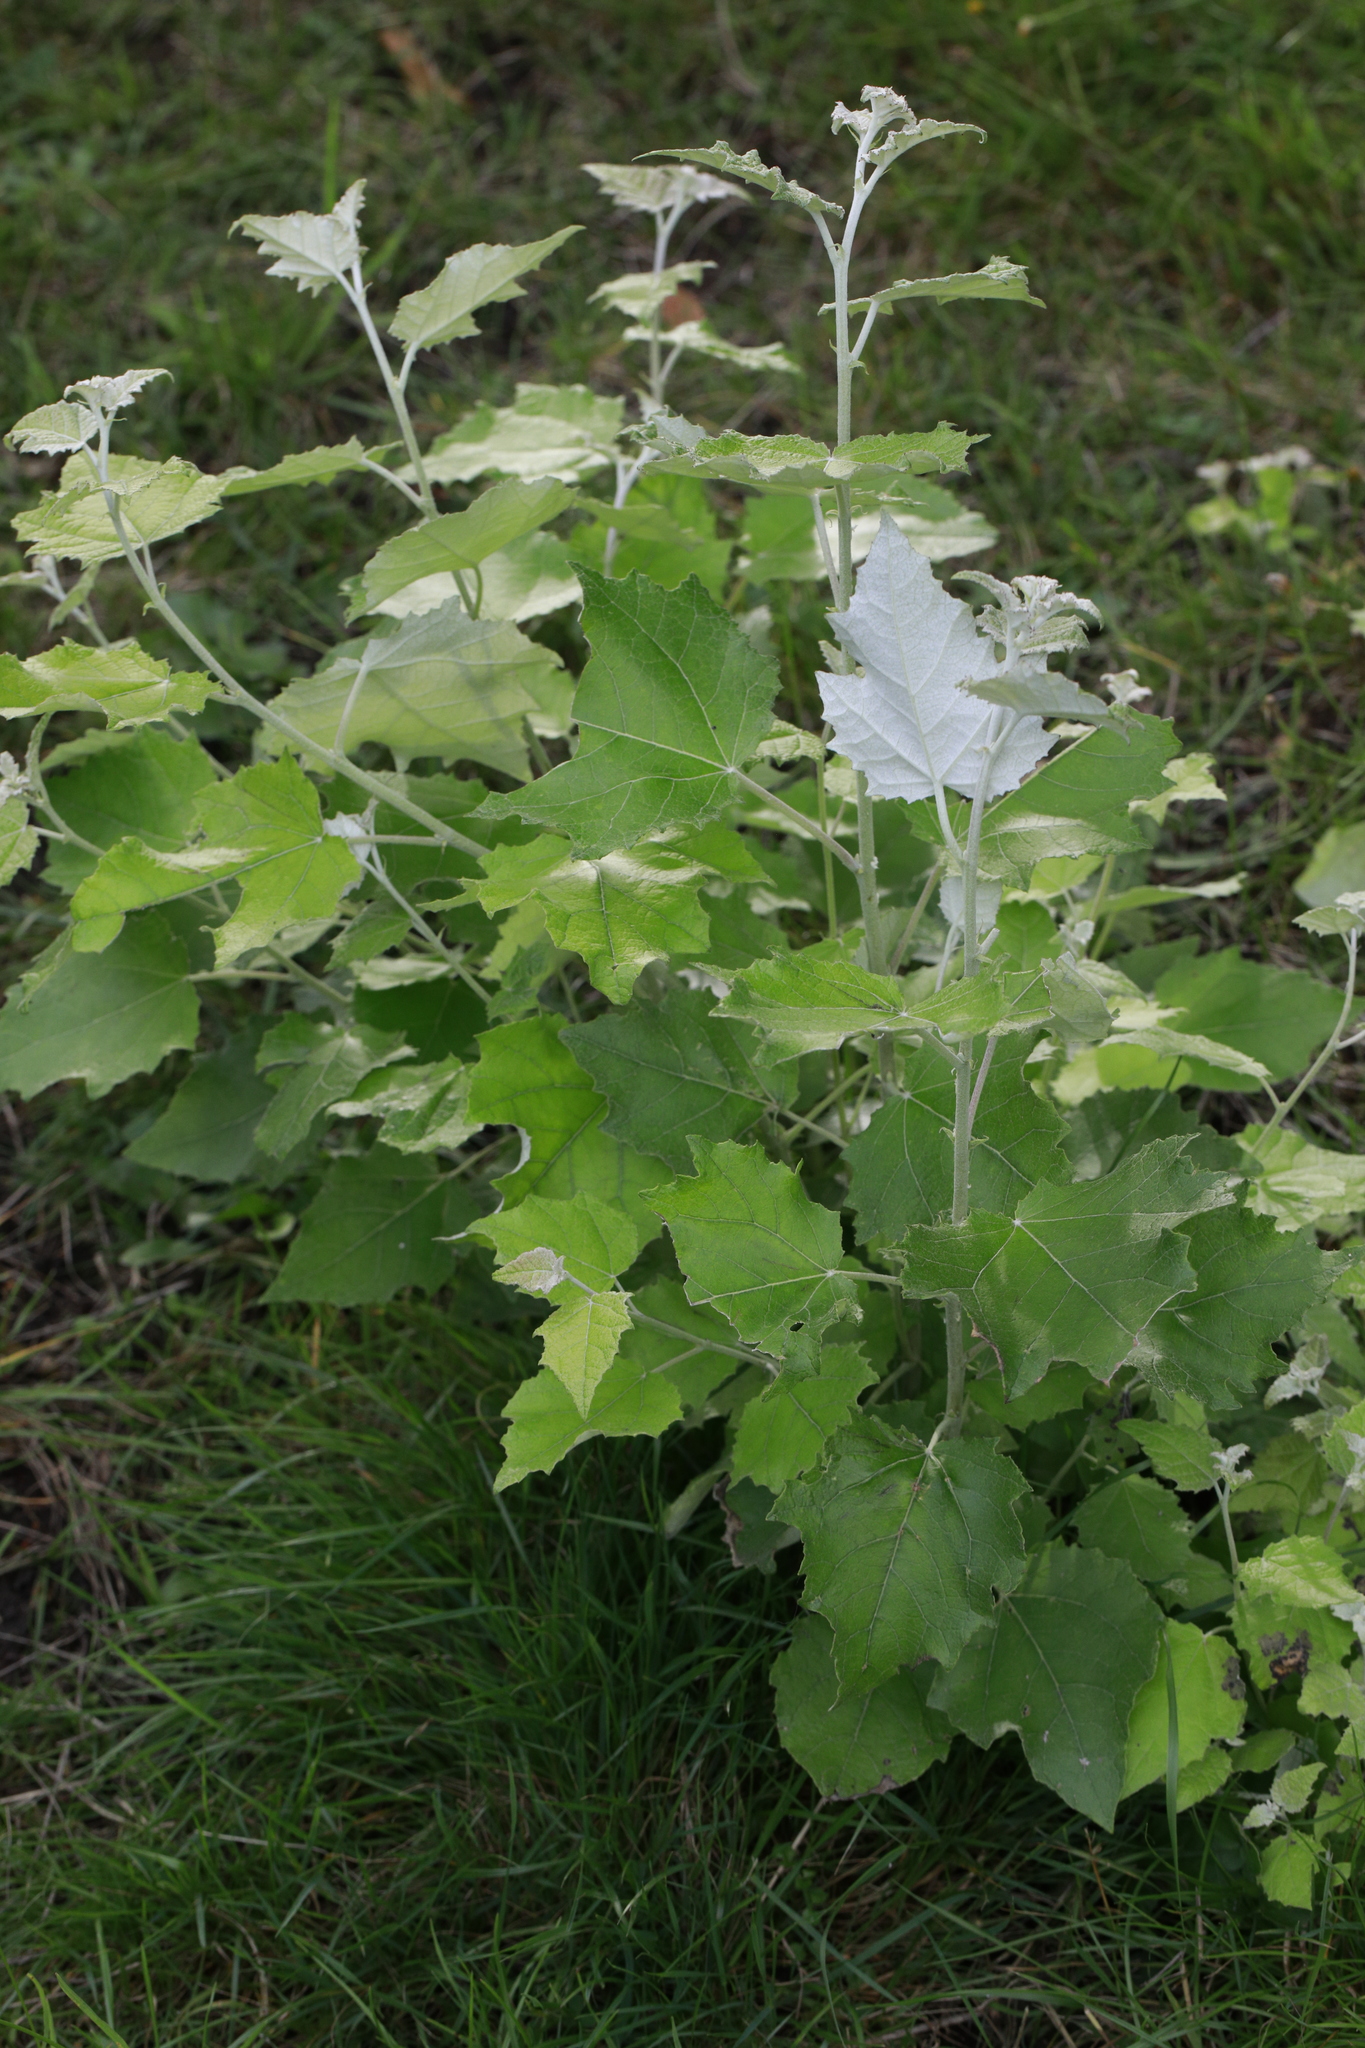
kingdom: Plantae
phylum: Tracheophyta
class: Magnoliopsida
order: Malpighiales
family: Salicaceae
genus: Populus
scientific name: Populus alba
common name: White poplar
